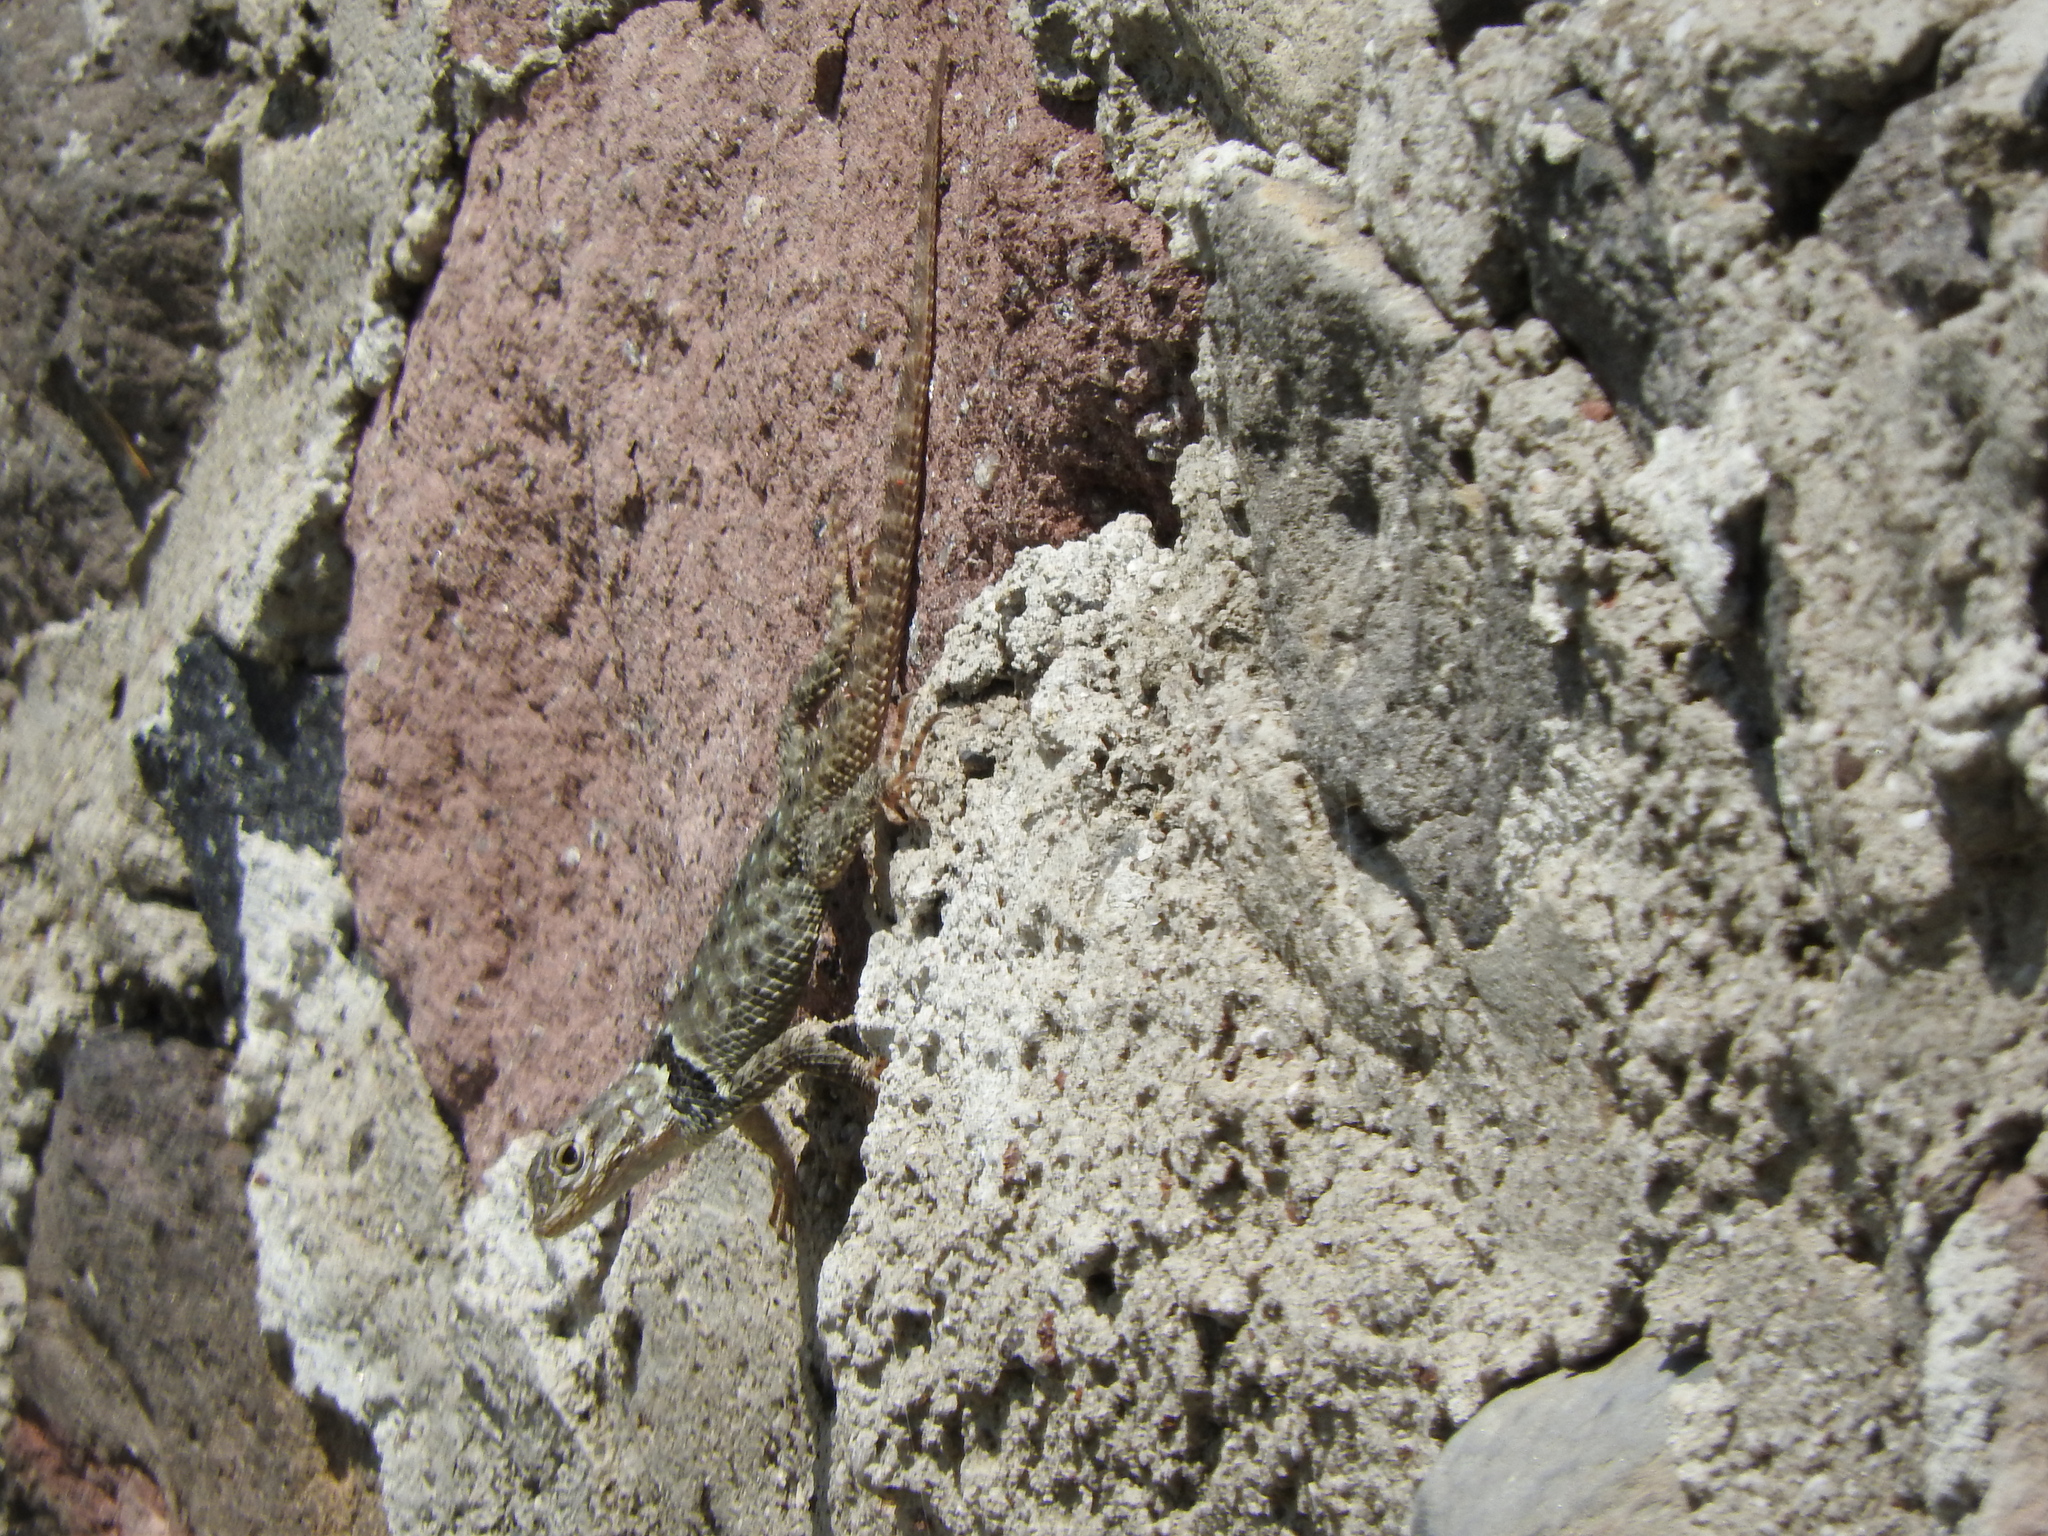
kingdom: Animalia
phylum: Chordata
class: Squamata
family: Phrynosomatidae
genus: Sceloporus
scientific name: Sceloporus torquatus
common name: Central plateau torquate lizard [melanogaster]
